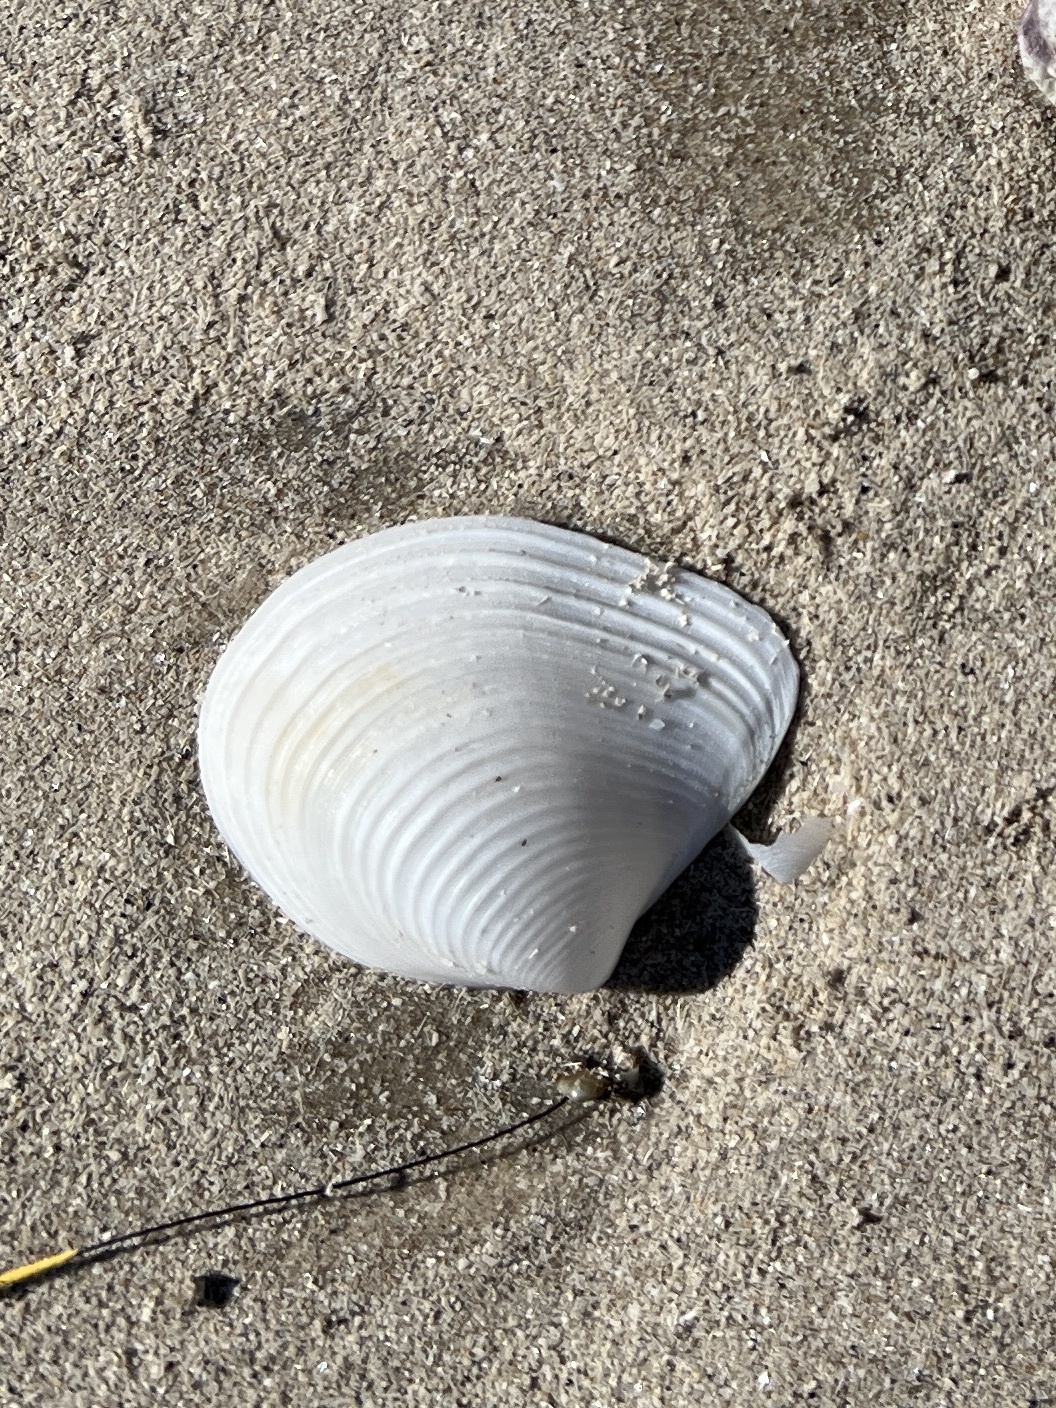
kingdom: Animalia
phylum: Mollusca
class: Bivalvia
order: Venerida
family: Anatinellidae
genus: Raeta
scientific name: Raeta plicatella
